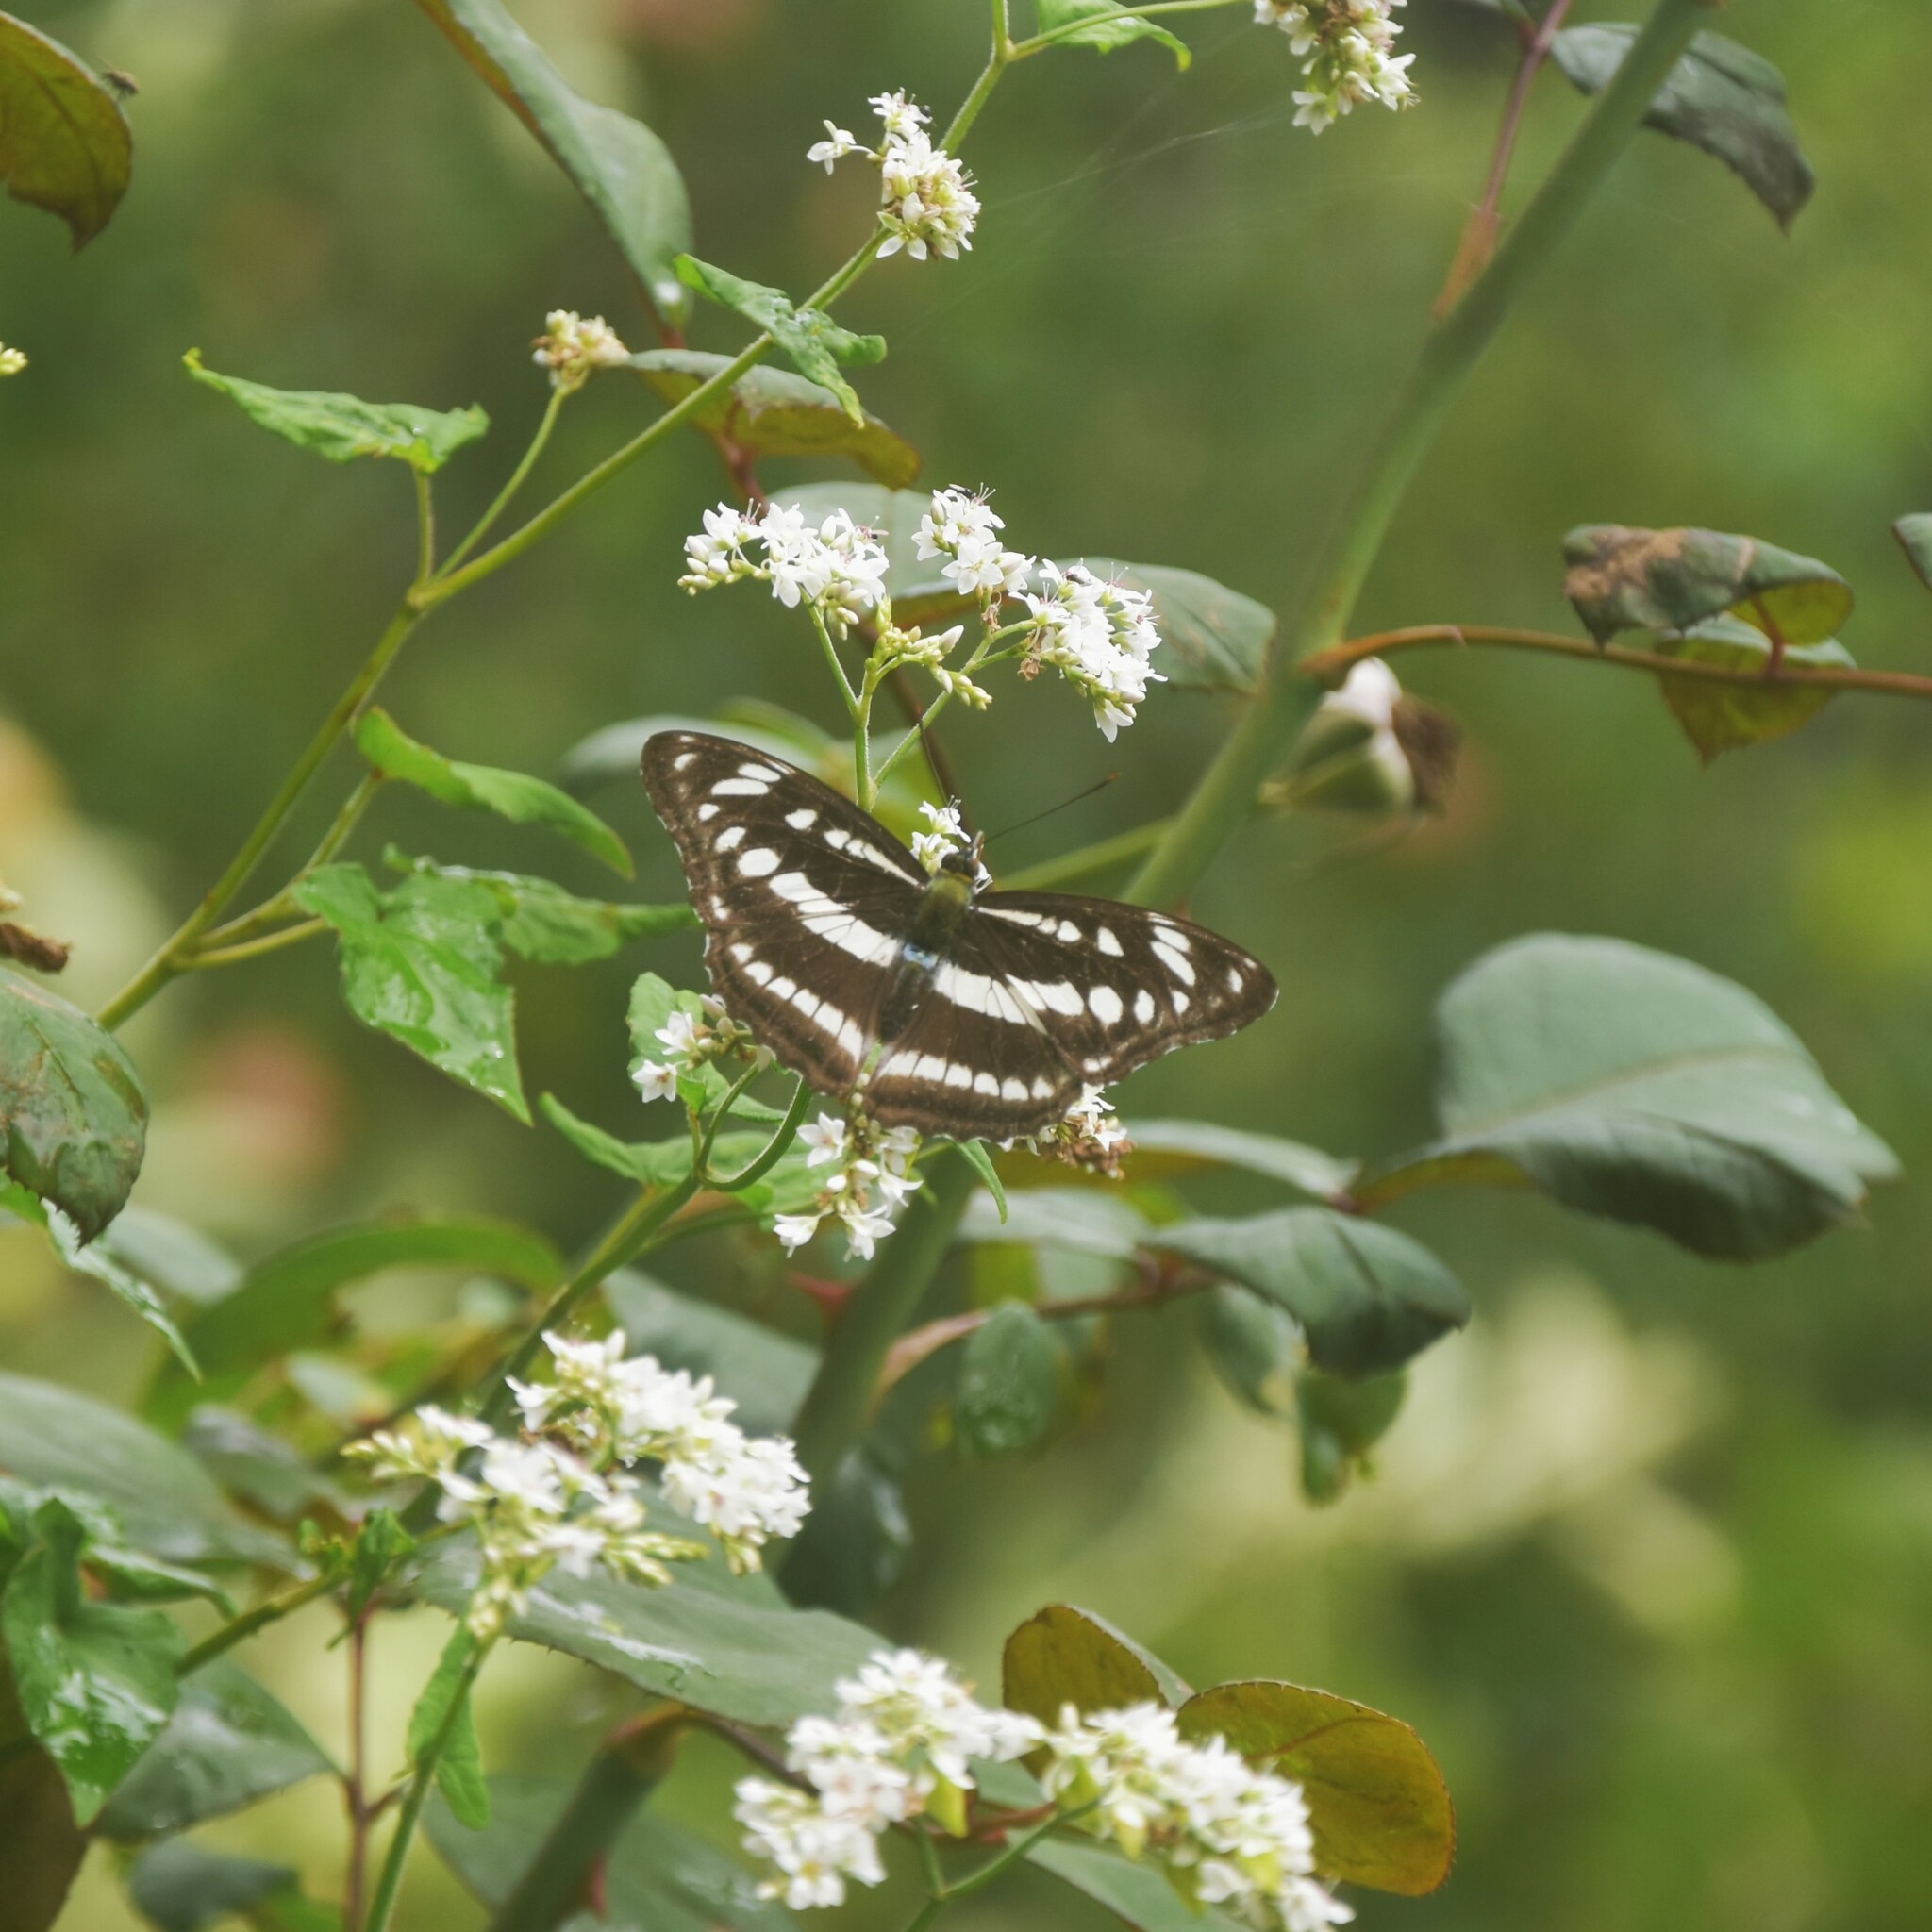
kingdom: Animalia
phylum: Arthropoda
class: Insecta
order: Lepidoptera
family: Nymphalidae
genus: Parathyma
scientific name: Parathyma opalina
